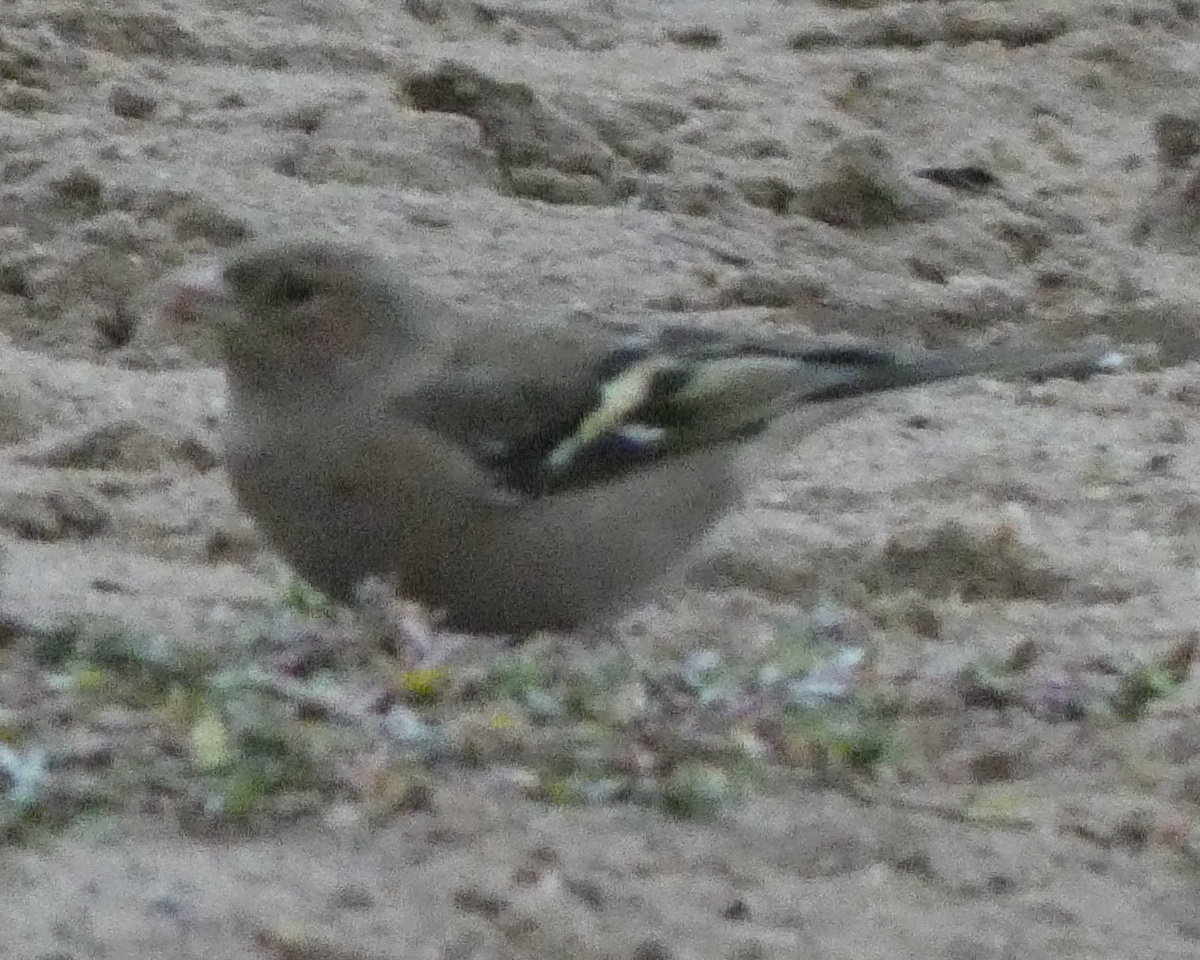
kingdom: Animalia
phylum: Chordata
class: Aves
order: Passeriformes
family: Fringillidae
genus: Fringilla
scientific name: Fringilla coelebs
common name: Common chaffinch
